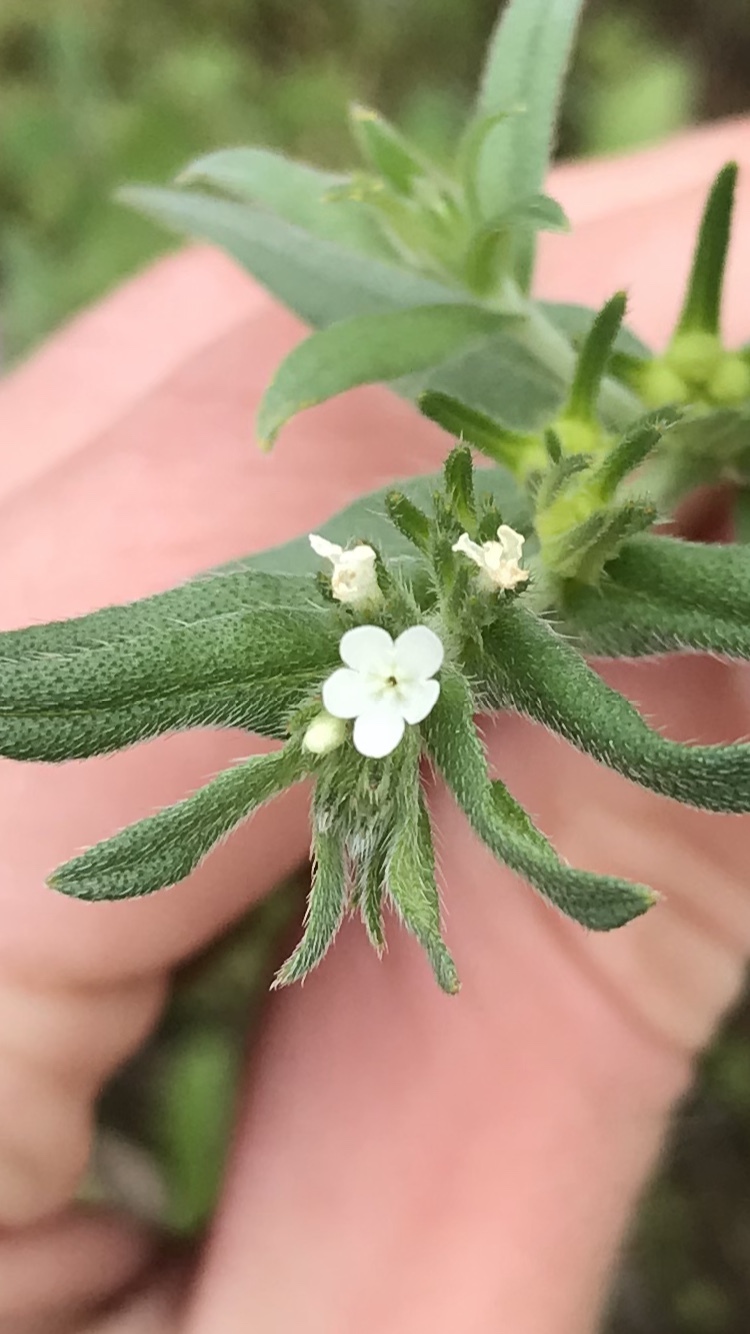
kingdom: Plantae
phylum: Tracheophyta
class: Magnoliopsida
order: Boraginales
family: Boraginaceae
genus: Buglossoides
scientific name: Buglossoides arvensis
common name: Corn gromwell
